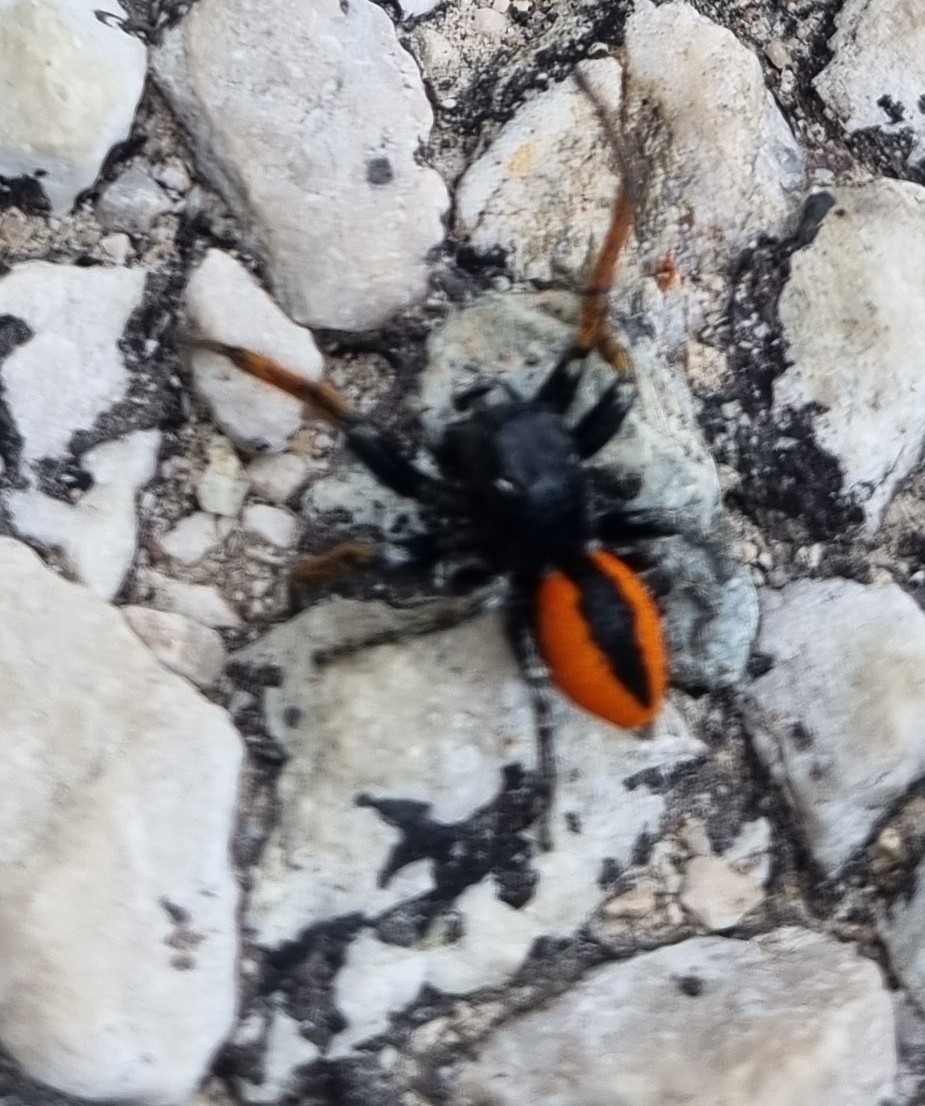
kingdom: Animalia
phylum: Arthropoda
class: Arachnida
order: Araneae
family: Salticidae
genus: Philaeus
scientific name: Philaeus chrysops
